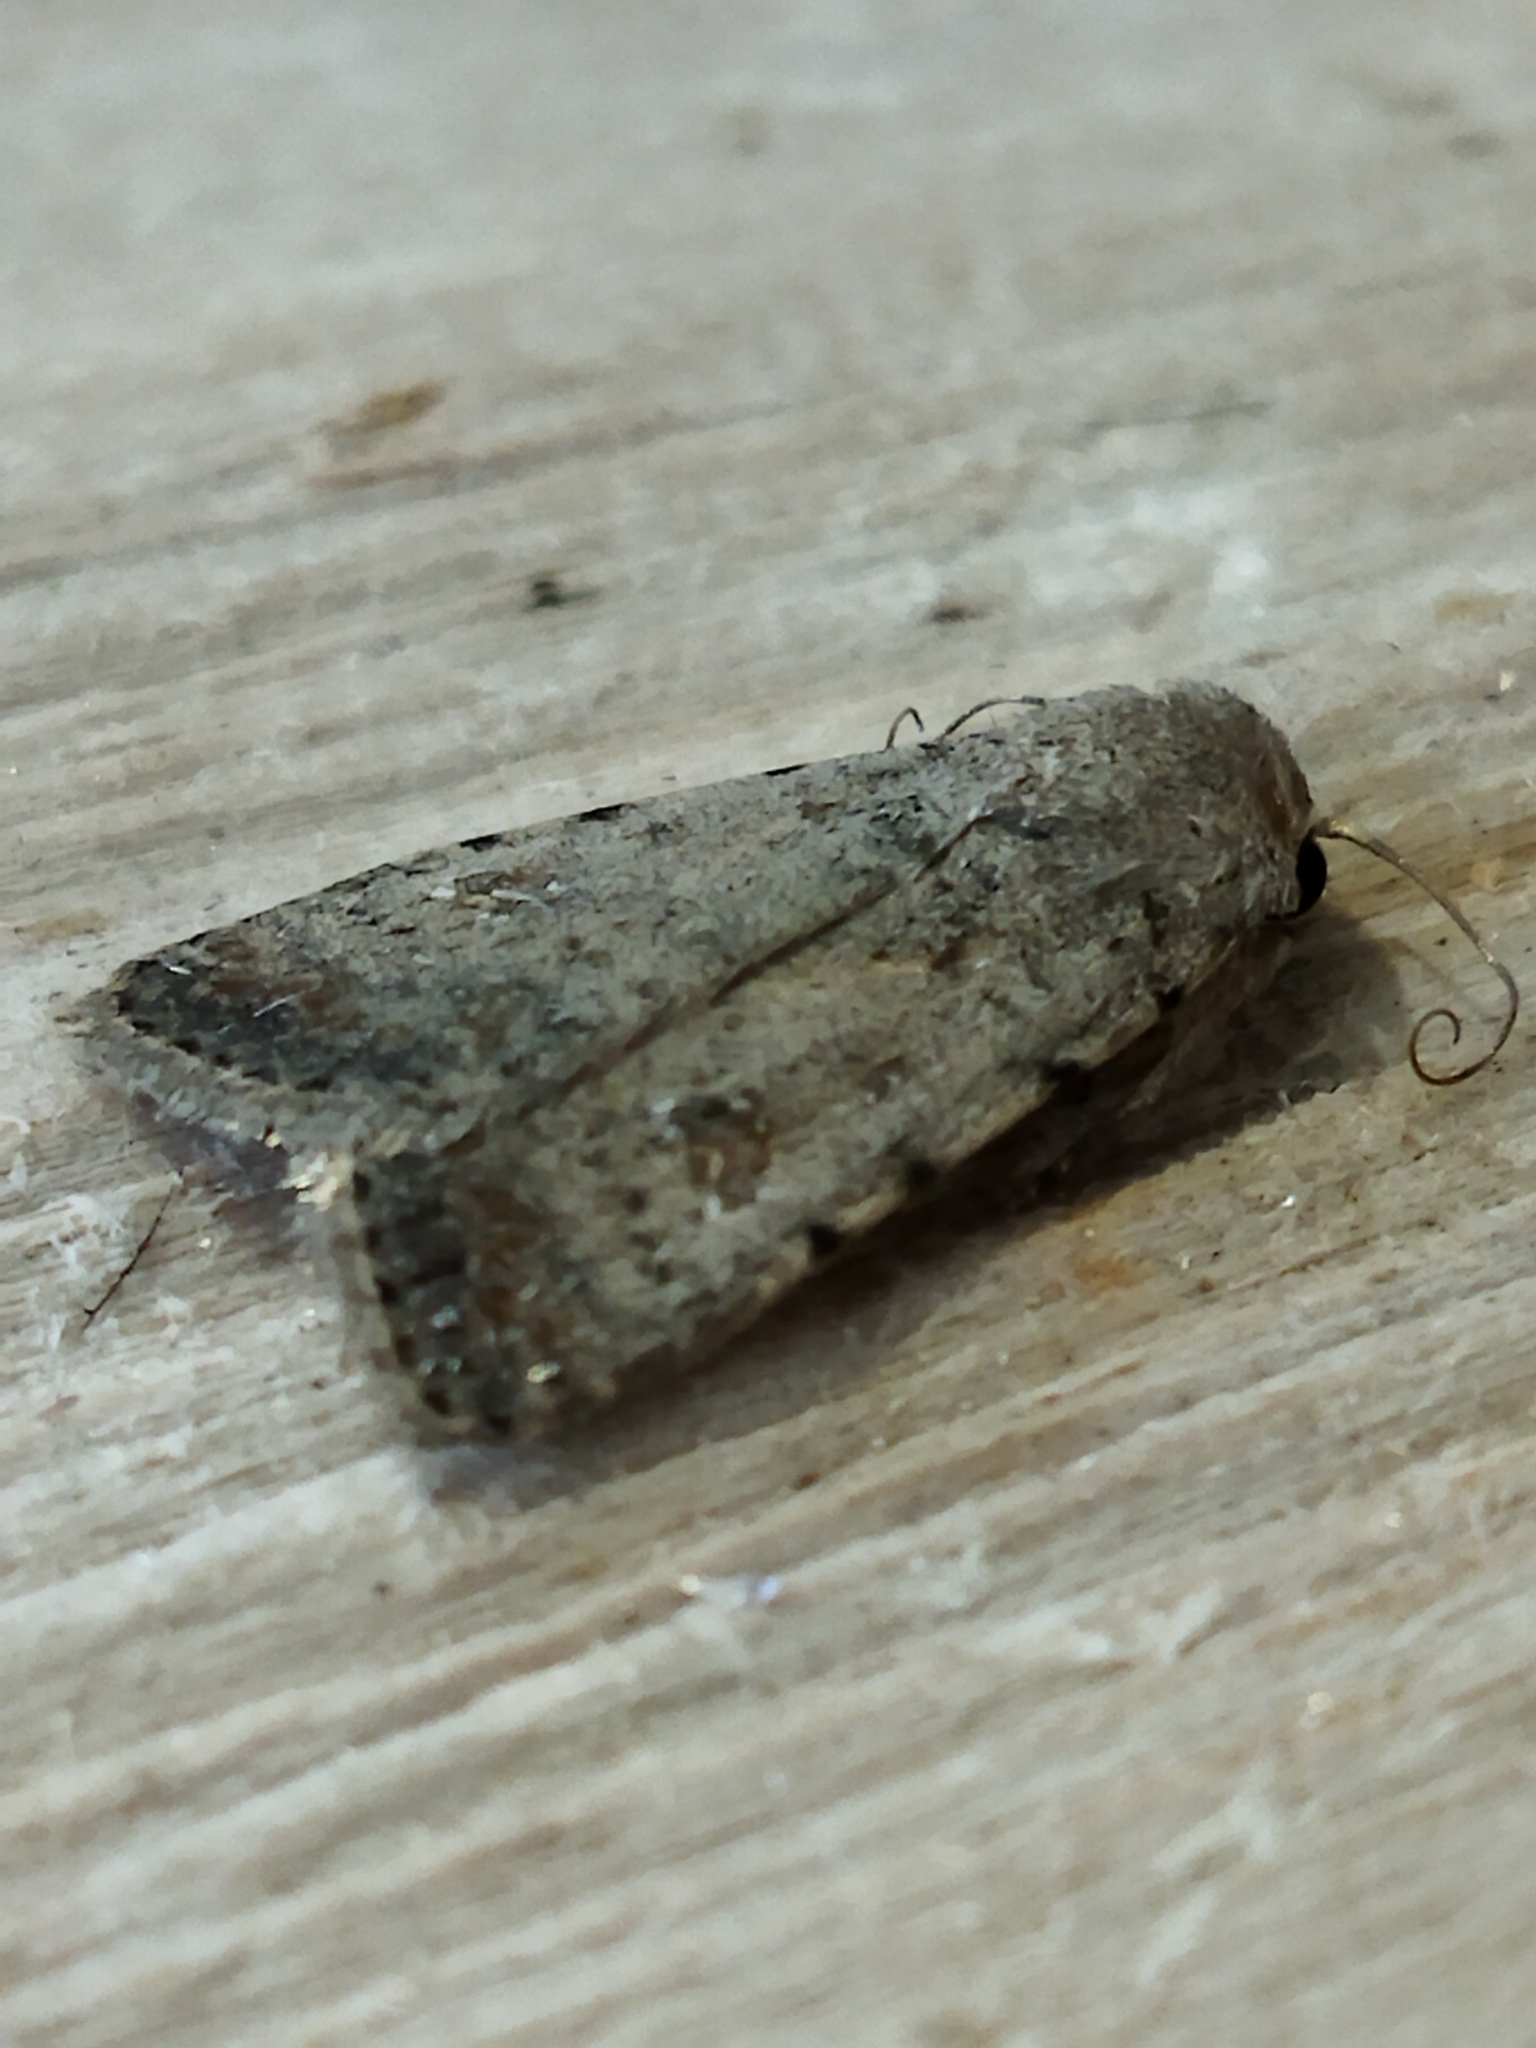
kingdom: Animalia
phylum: Arthropoda
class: Insecta
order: Lepidoptera
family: Noctuidae
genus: Caradrina
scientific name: Caradrina clavipalpis
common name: Pale mottled willow
